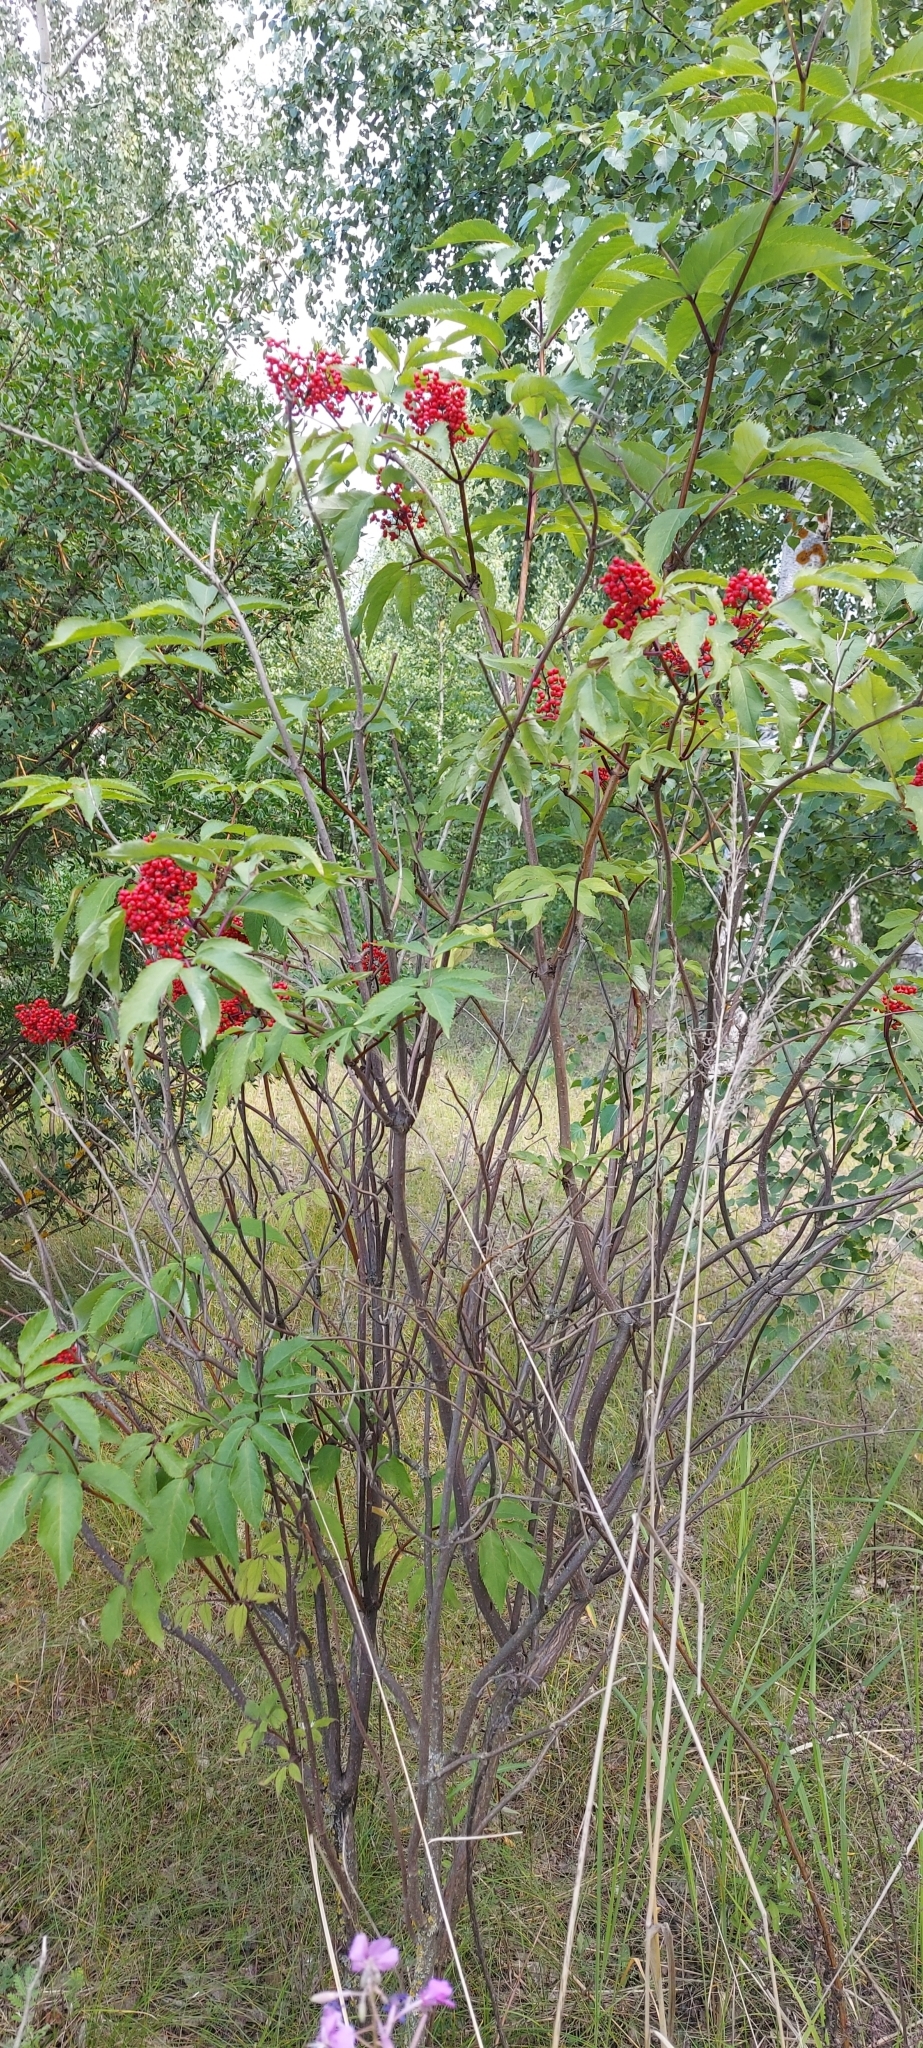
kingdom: Plantae
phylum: Tracheophyta
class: Magnoliopsida
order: Dipsacales
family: Viburnaceae
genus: Sambucus
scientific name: Sambucus racemosa
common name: Red-berried elder
